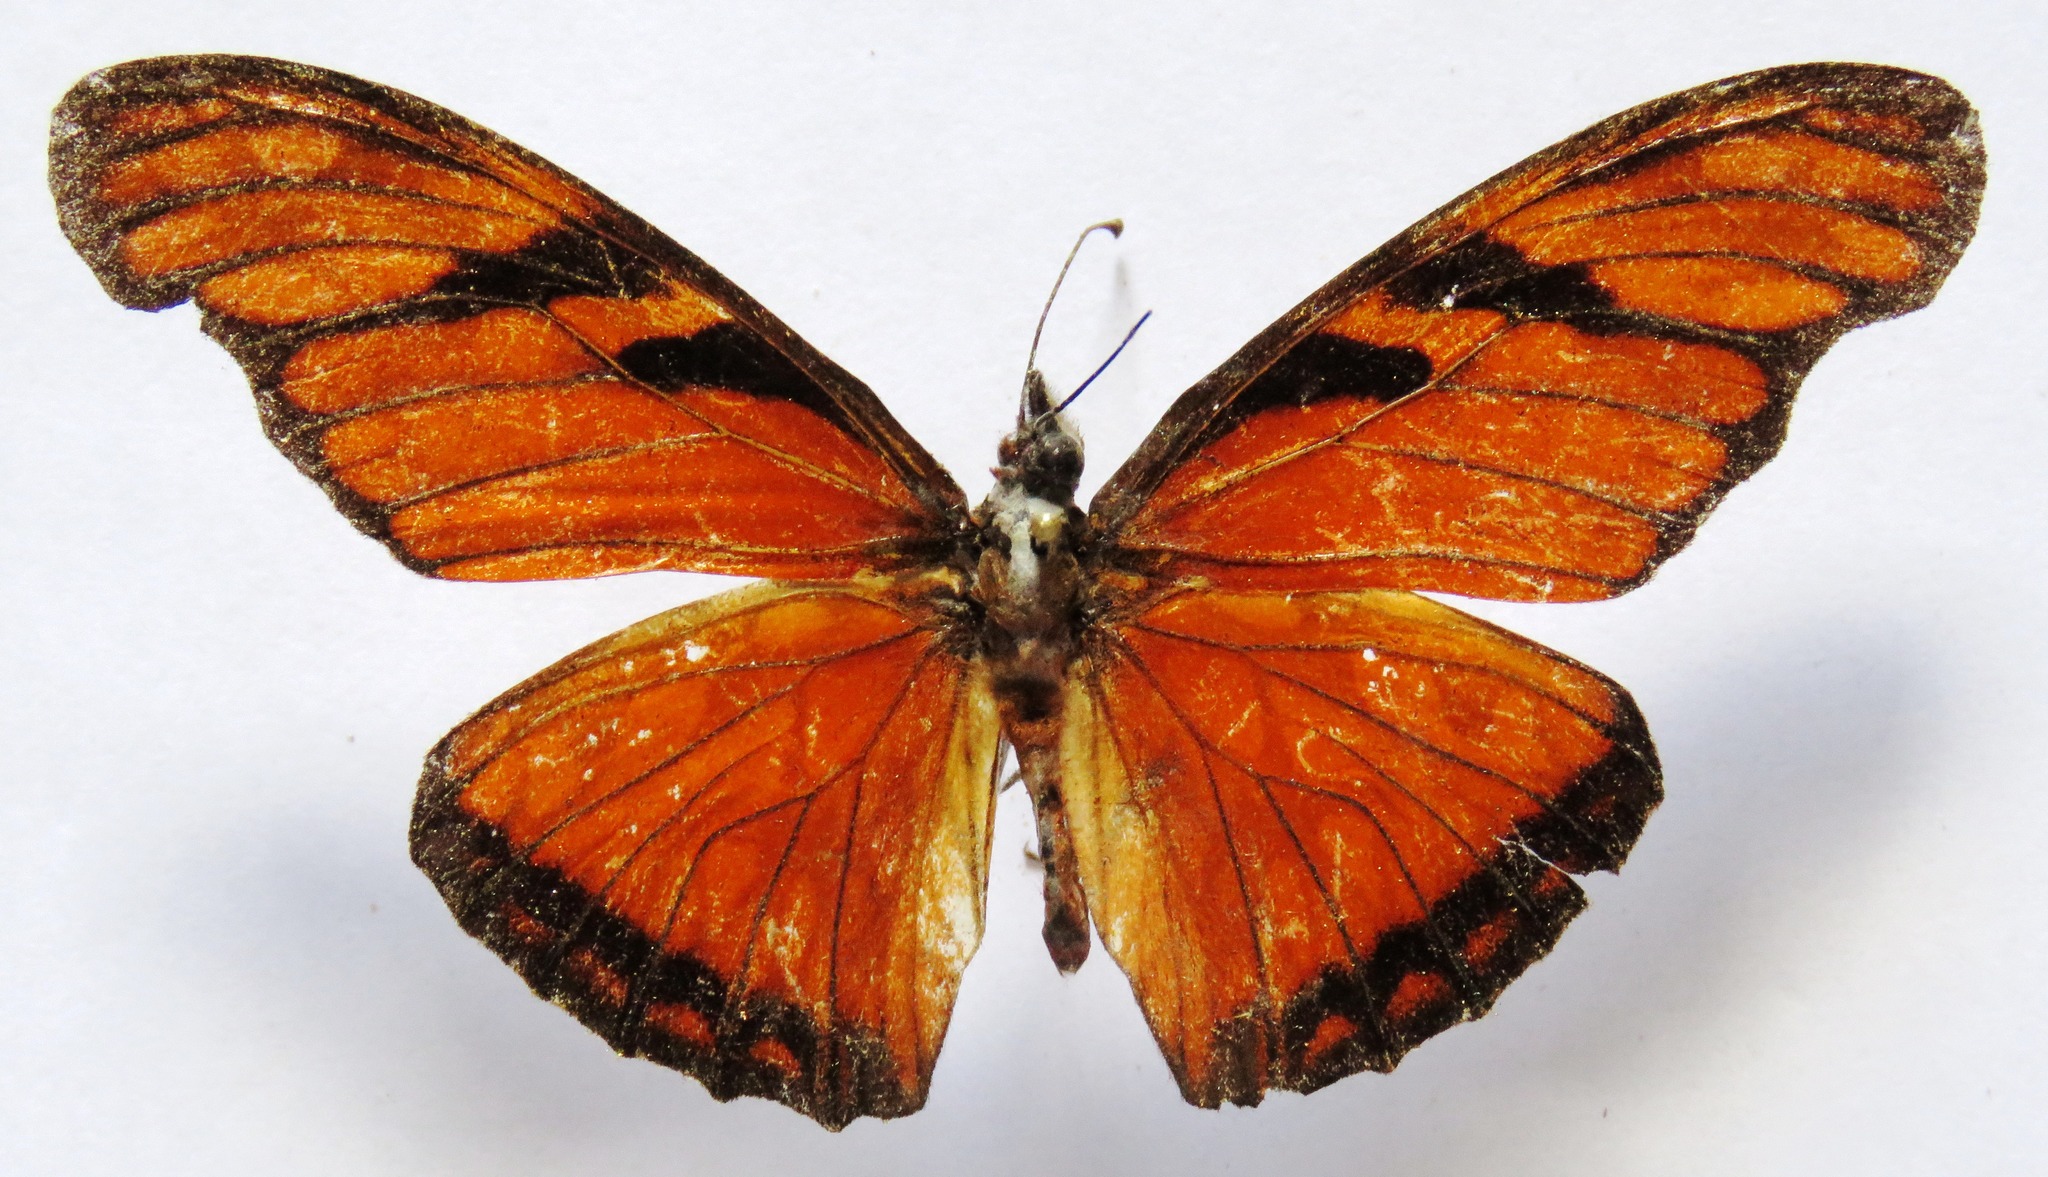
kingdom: Animalia
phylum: Arthropoda
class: Insecta
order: Lepidoptera
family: Nymphalidae
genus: Dione
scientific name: Dione juno
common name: Juno silverspot
